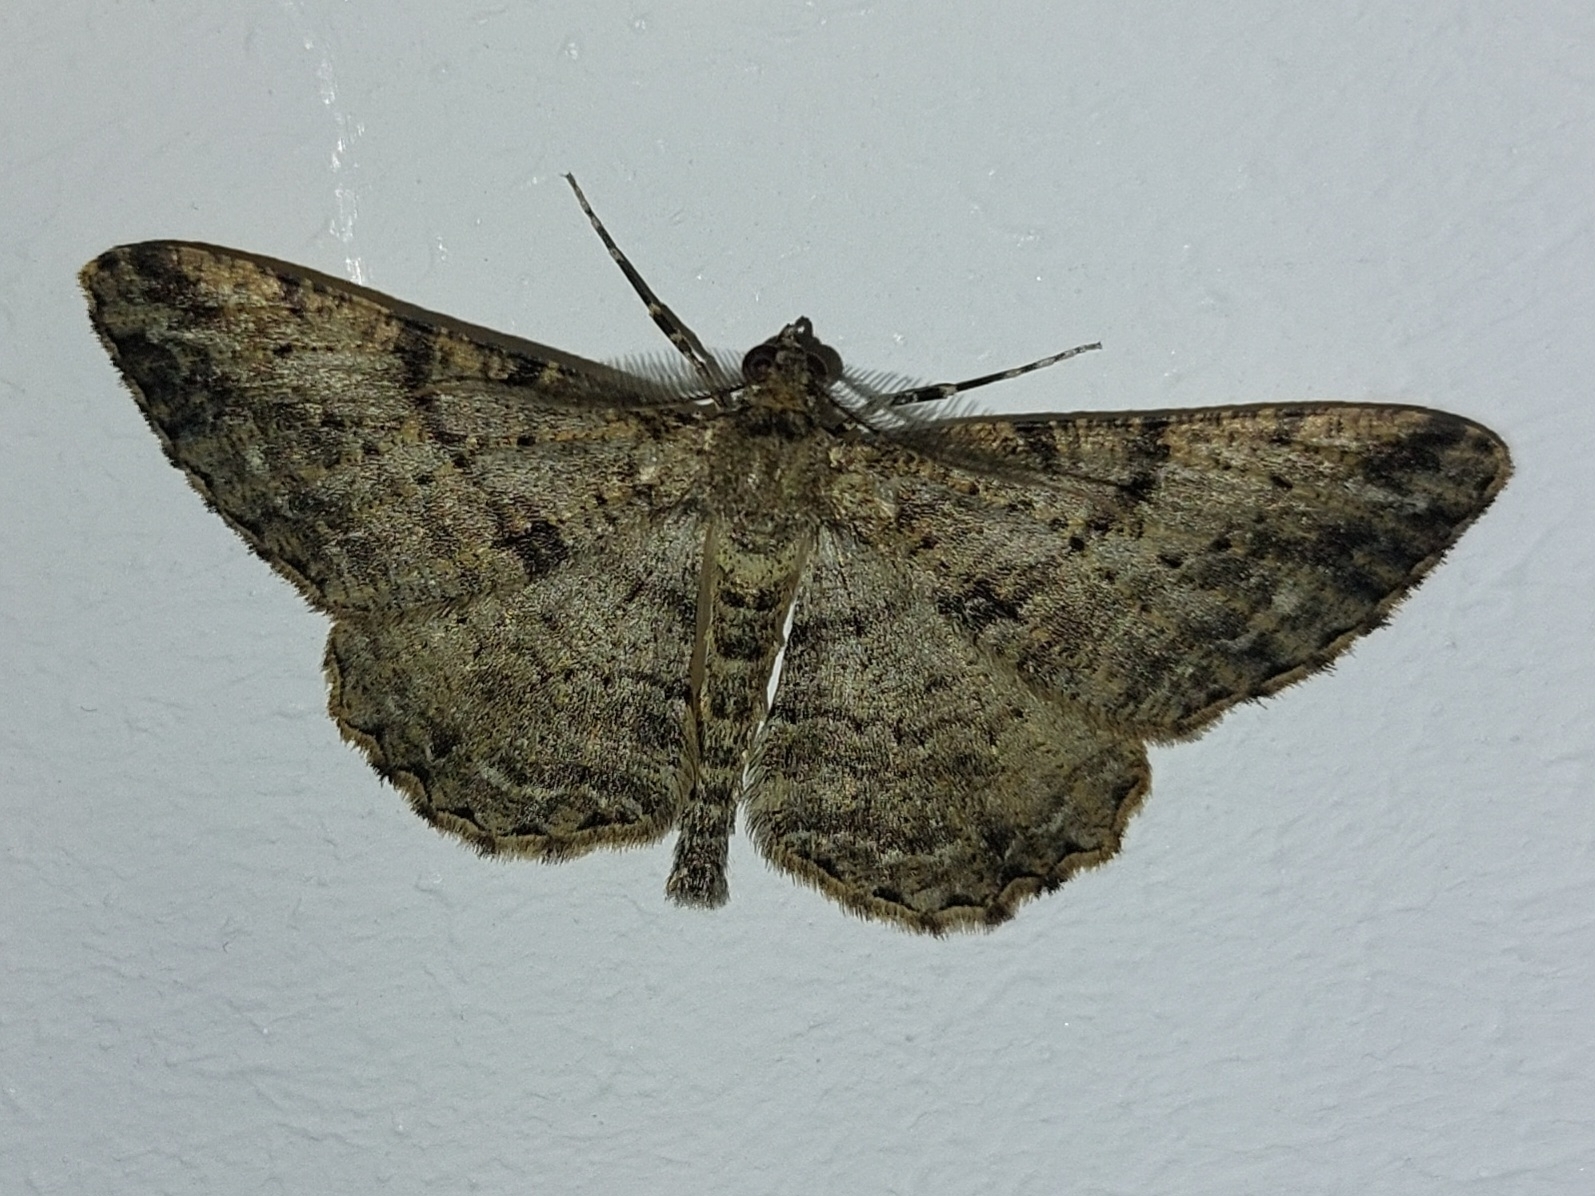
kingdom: Animalia
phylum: Arthropoda
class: Insecta
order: Lepidoptera
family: Geometridae
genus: Peribatodes
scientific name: Peribatodes rhomboidaria
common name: Willow beauty
